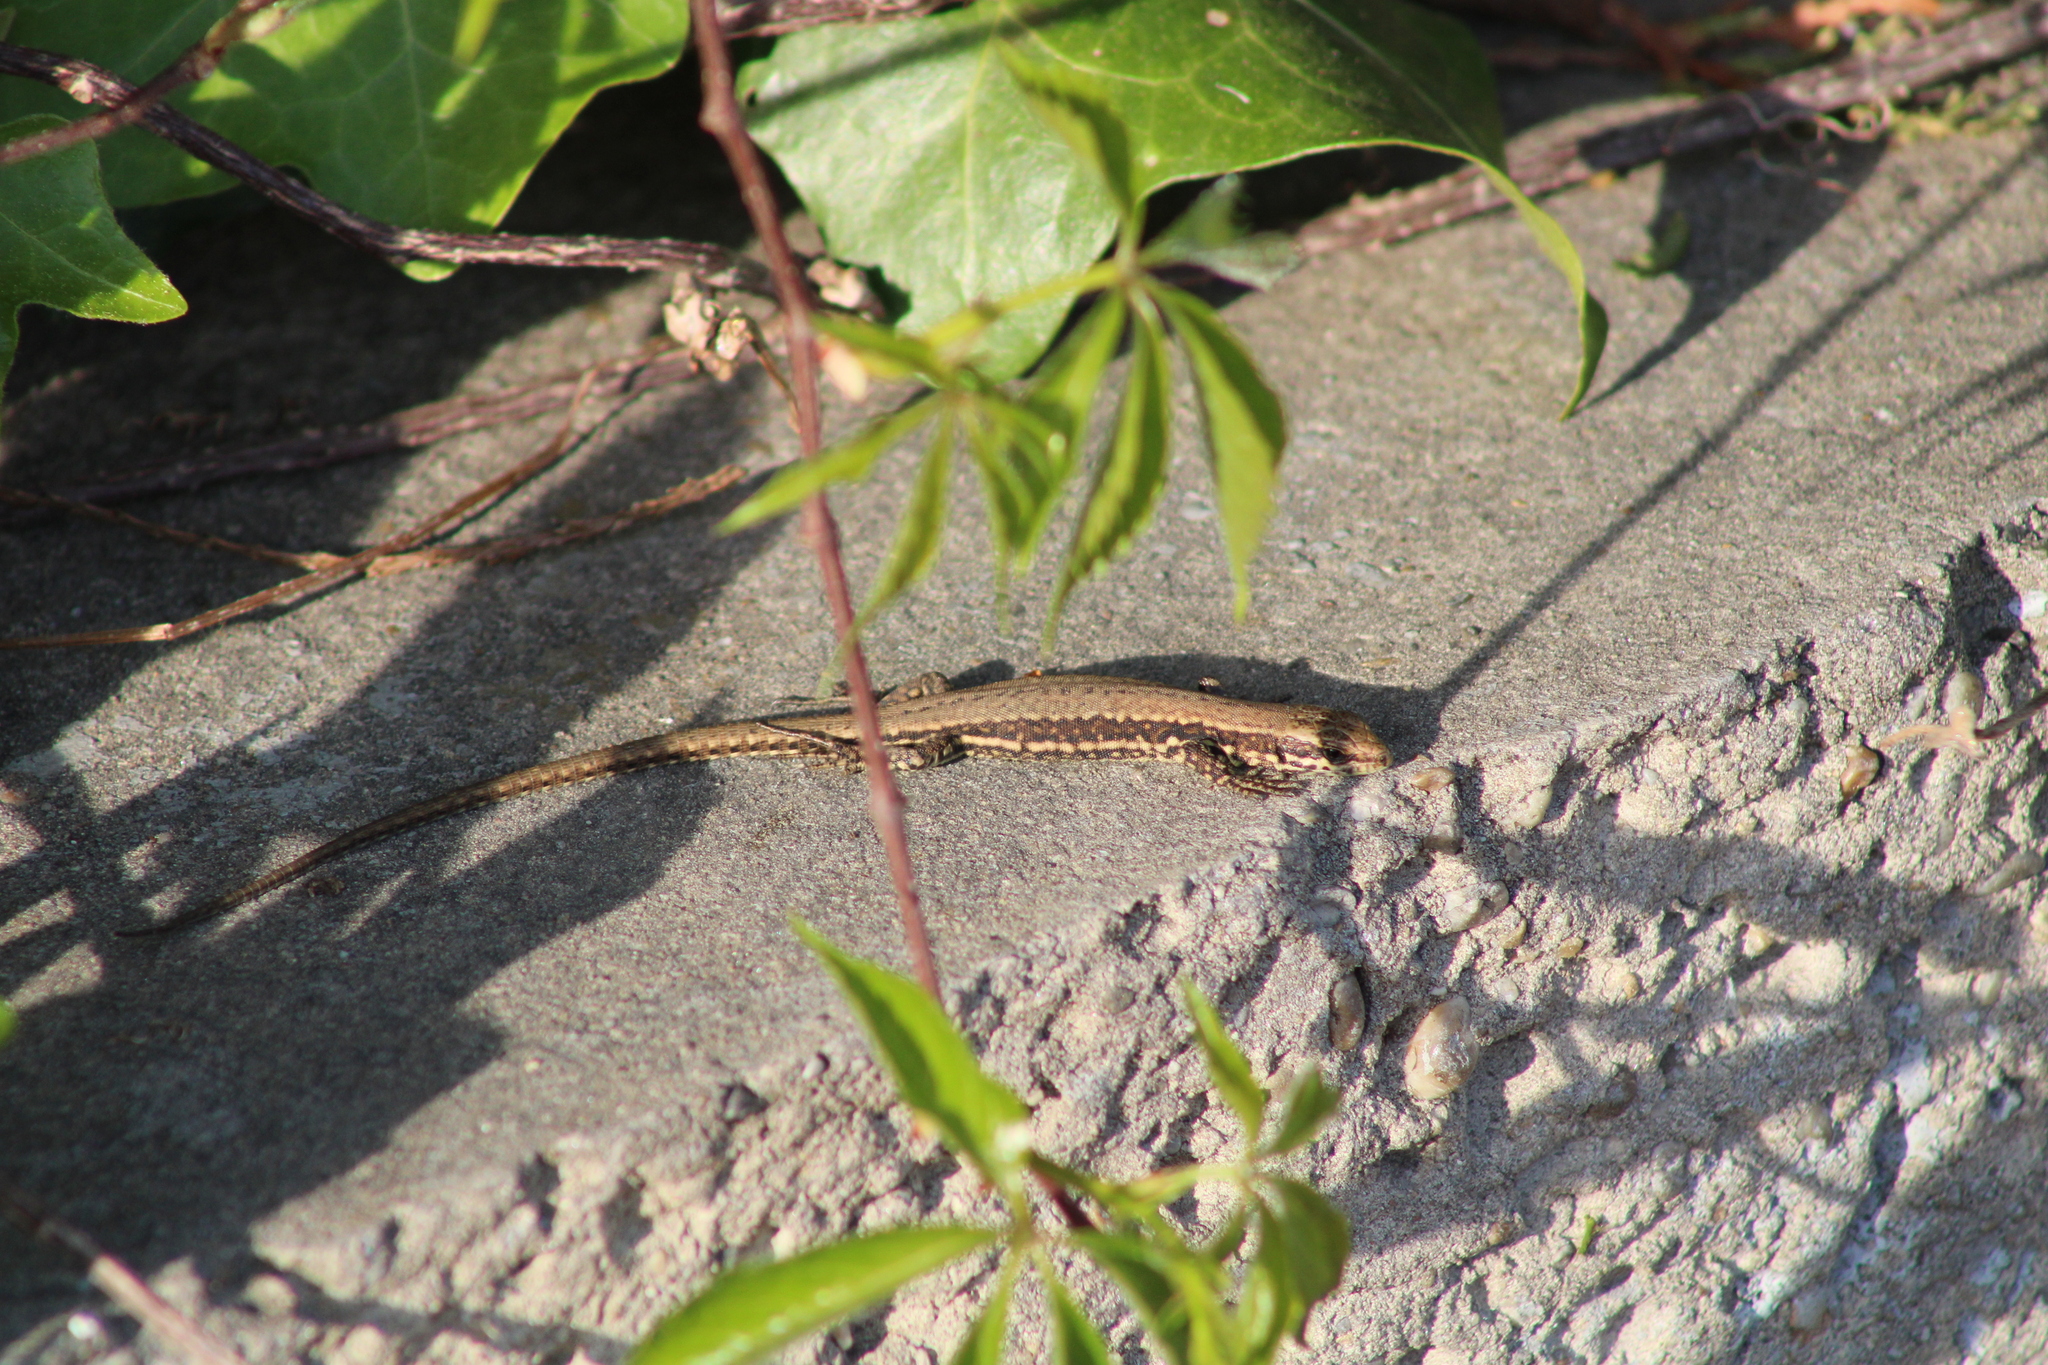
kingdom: Animalia
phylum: Chordata
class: Squamata
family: Lacertidae
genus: Podarcis
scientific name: Podarcis muralis
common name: Common wall lizard
